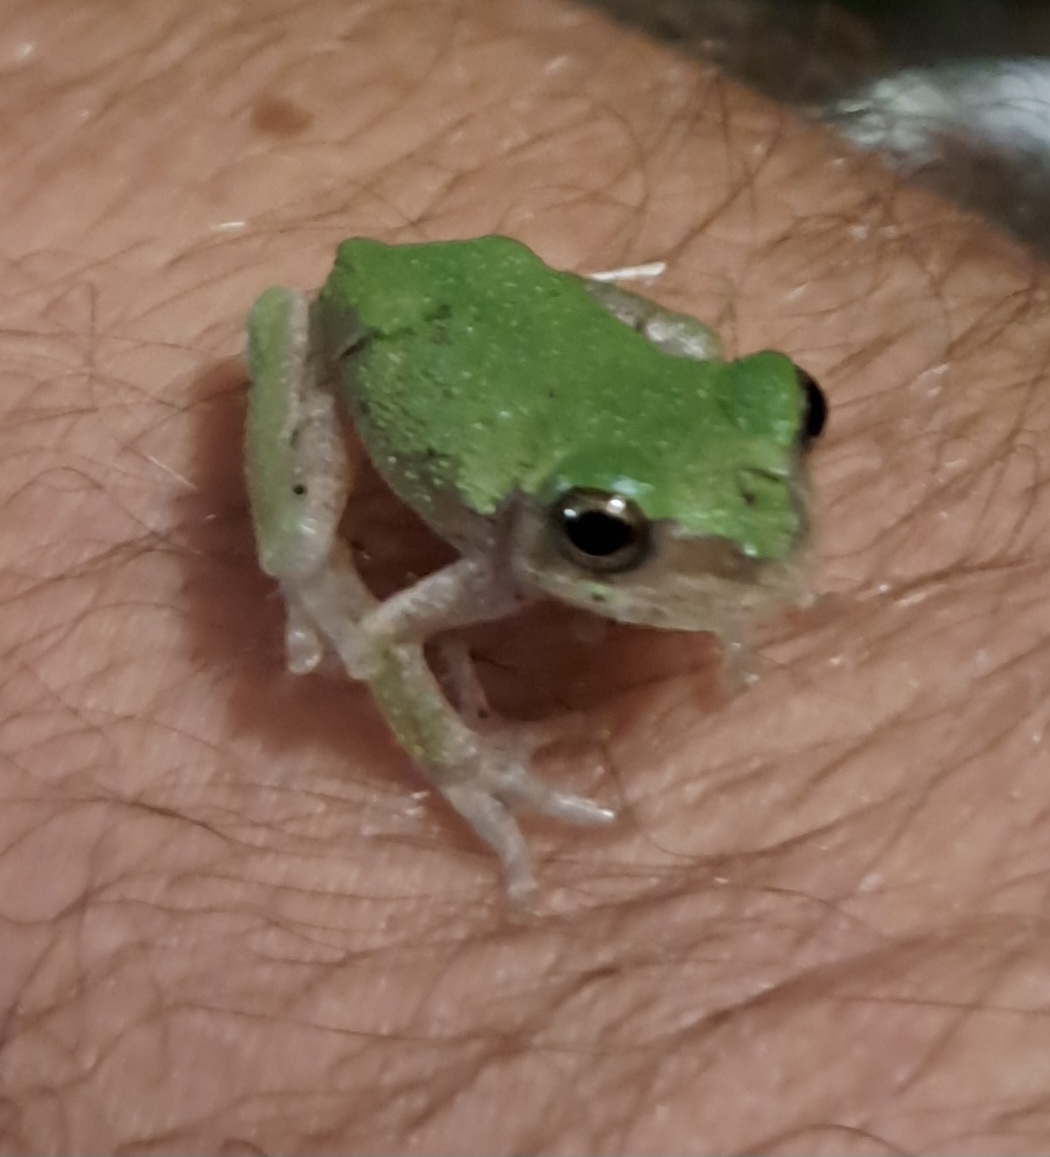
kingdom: Animalia
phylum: Chordata
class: Amphibia
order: Anura
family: Hylidae
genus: Dryophytes
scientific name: Dryophytes chrysoscelis
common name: Cope's gray treefrog
